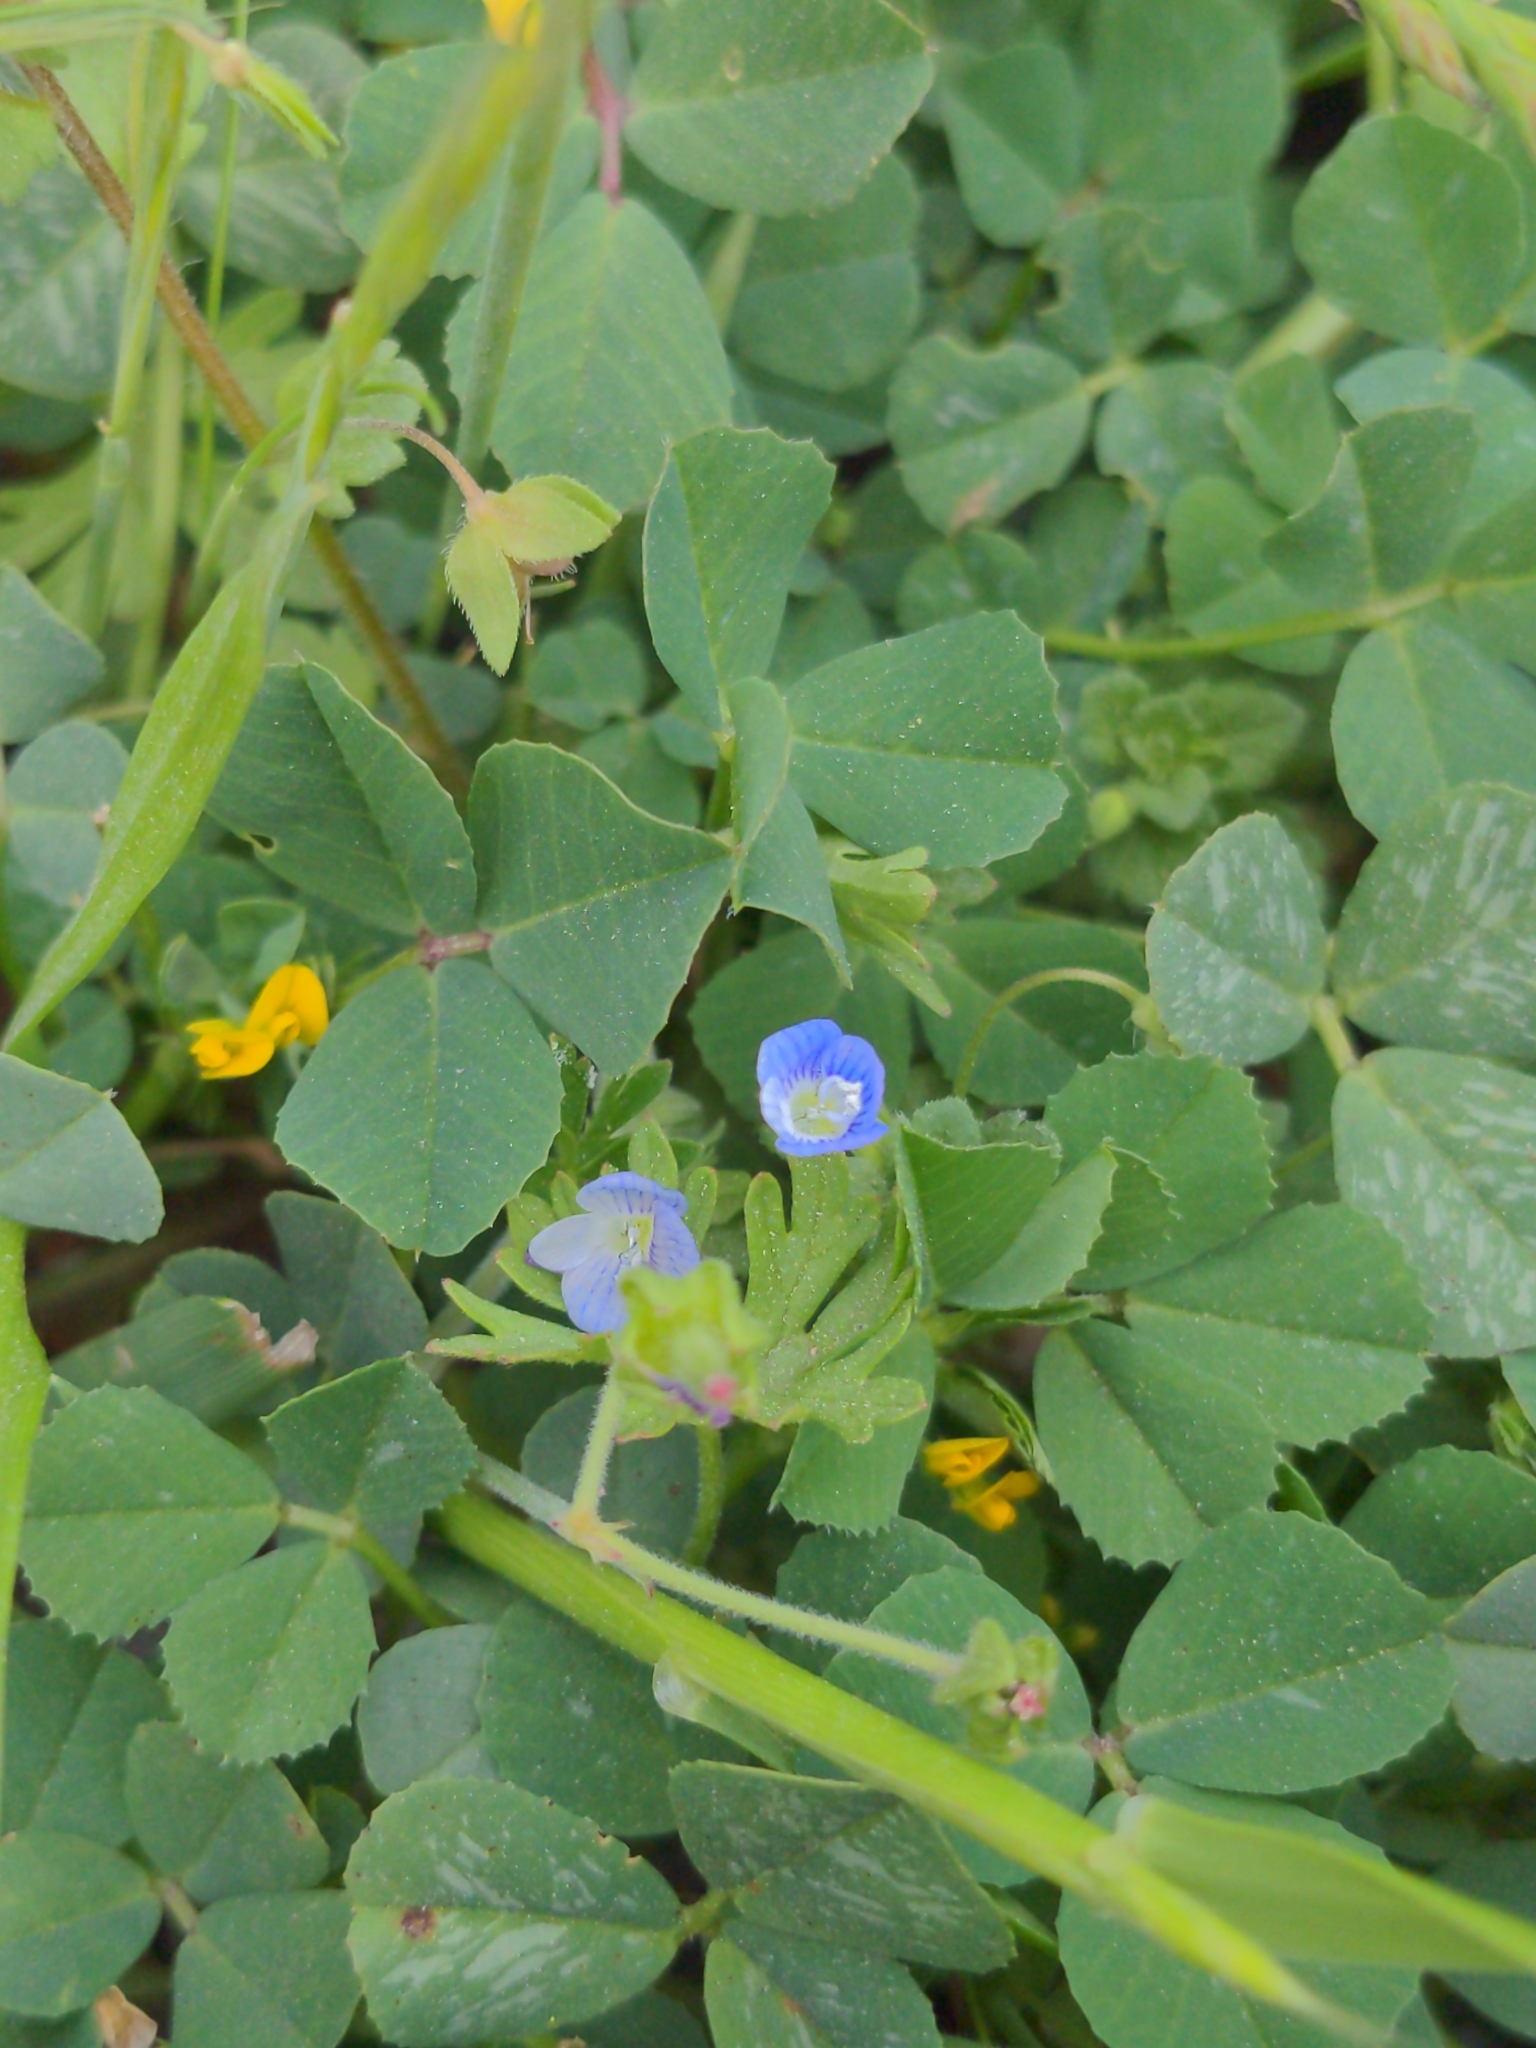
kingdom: Plantae
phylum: Tracheophyta
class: Magnoliopsida
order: Lamiales
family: Plantaginaceae
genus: Veronica
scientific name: Veronica persica
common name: Common field-speedwell
